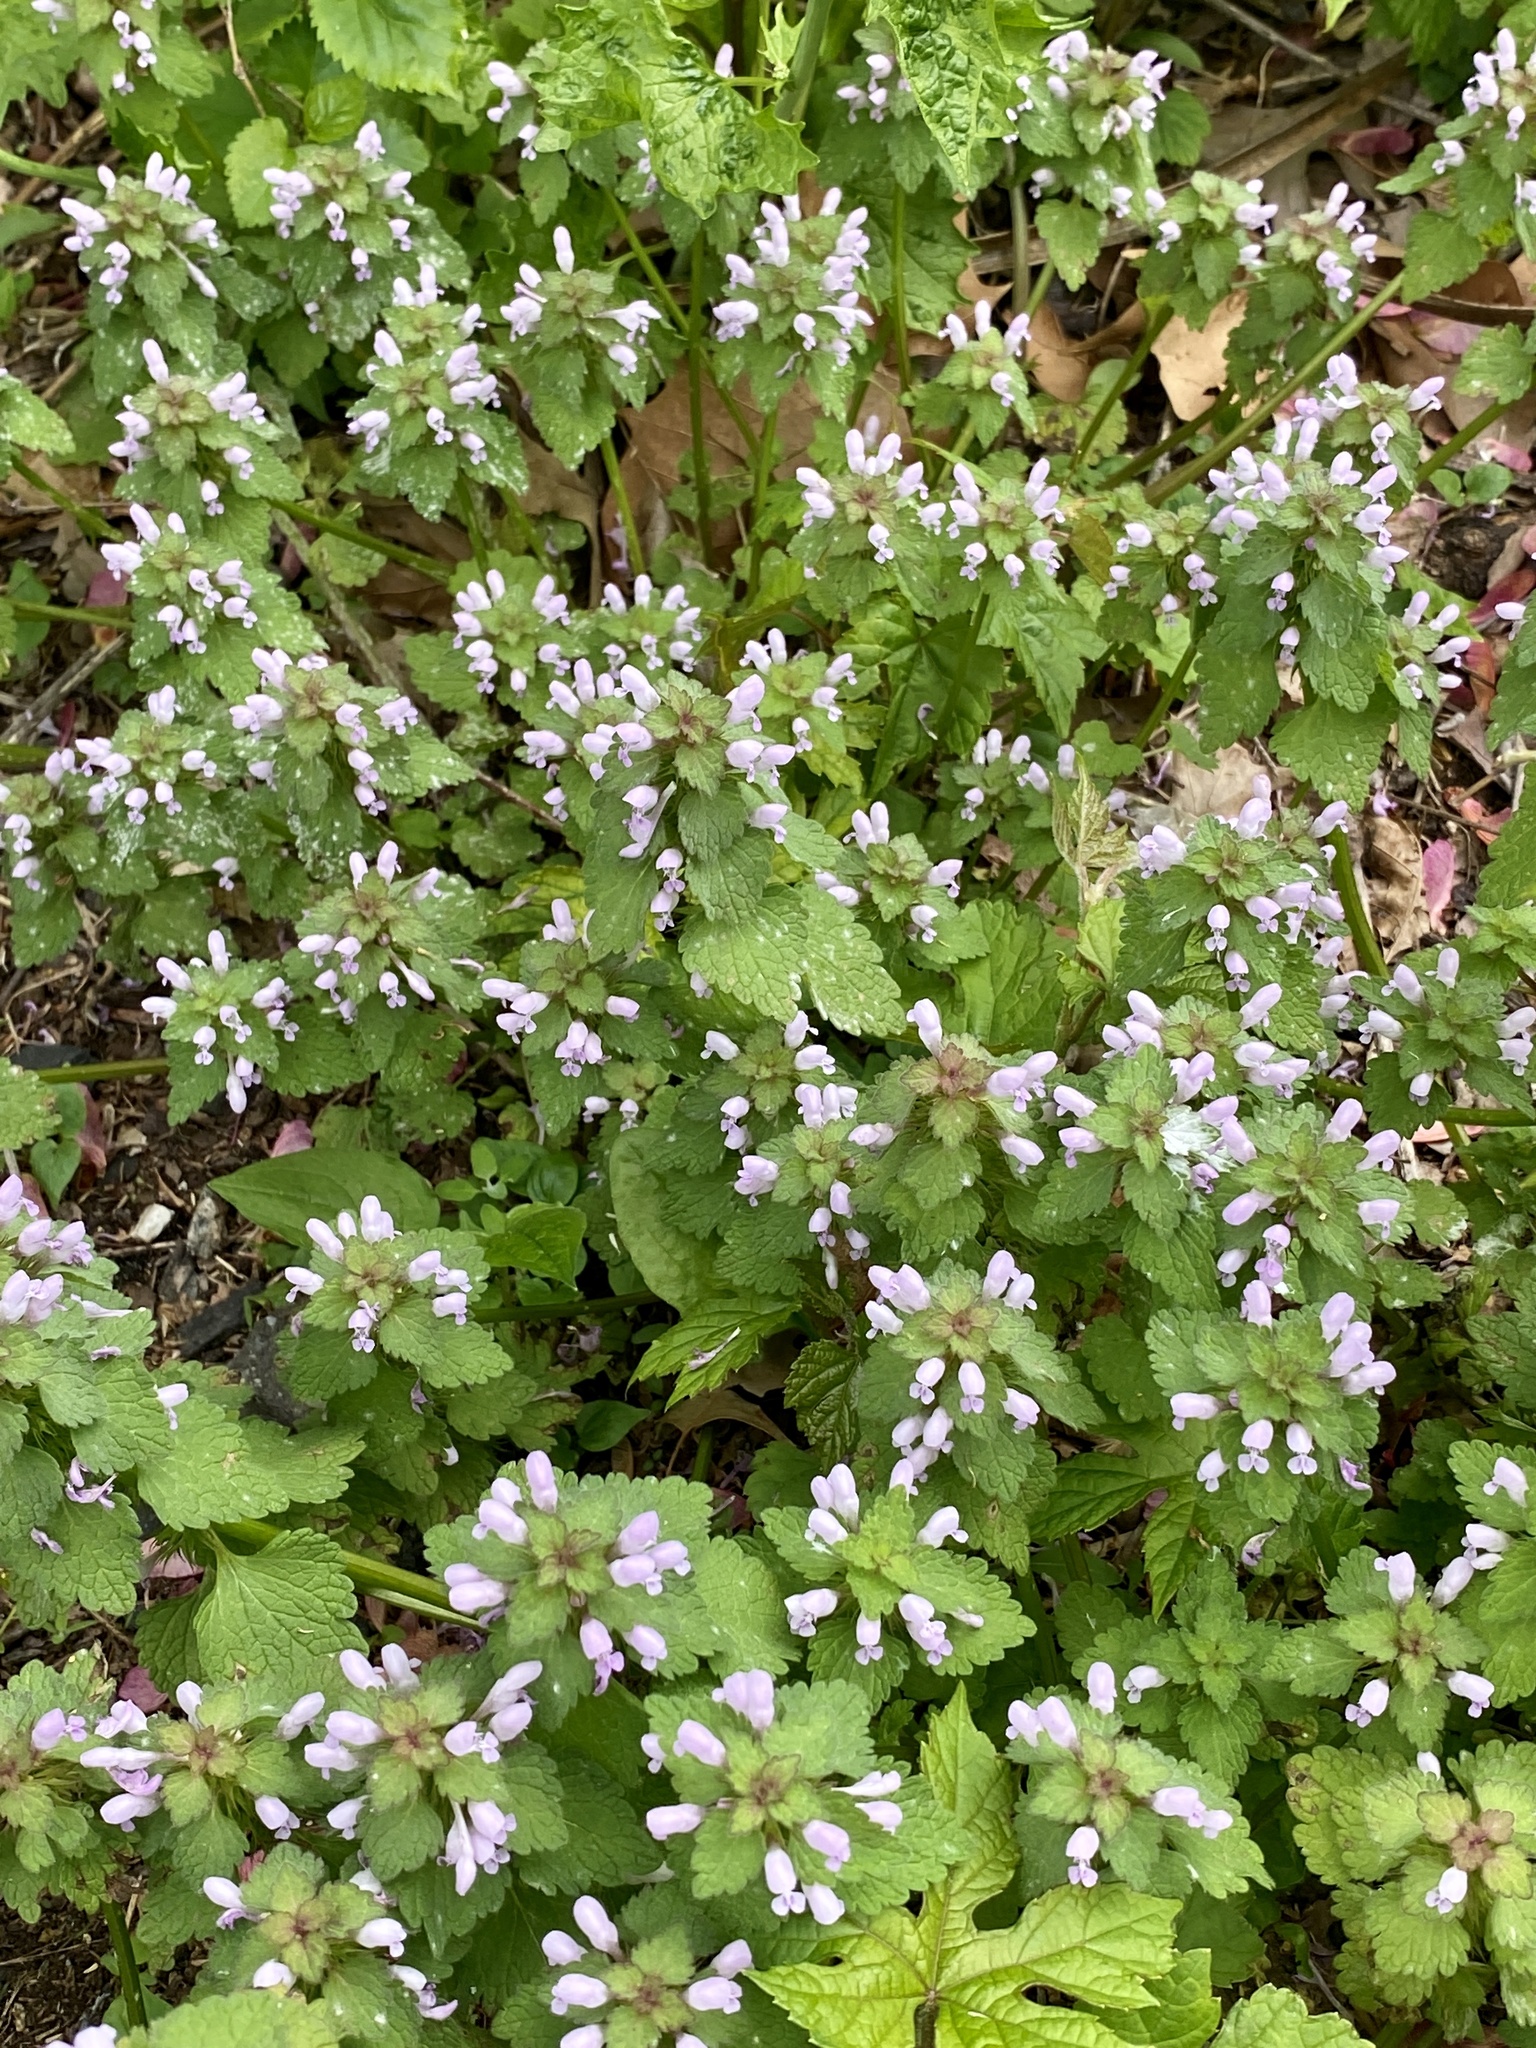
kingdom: Plantae
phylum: Tracheophyta
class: Magnoliopsida
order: Lamiales
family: Lamiaceae
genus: Lamium
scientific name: Lamium purpureum
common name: Red dead-nettle
